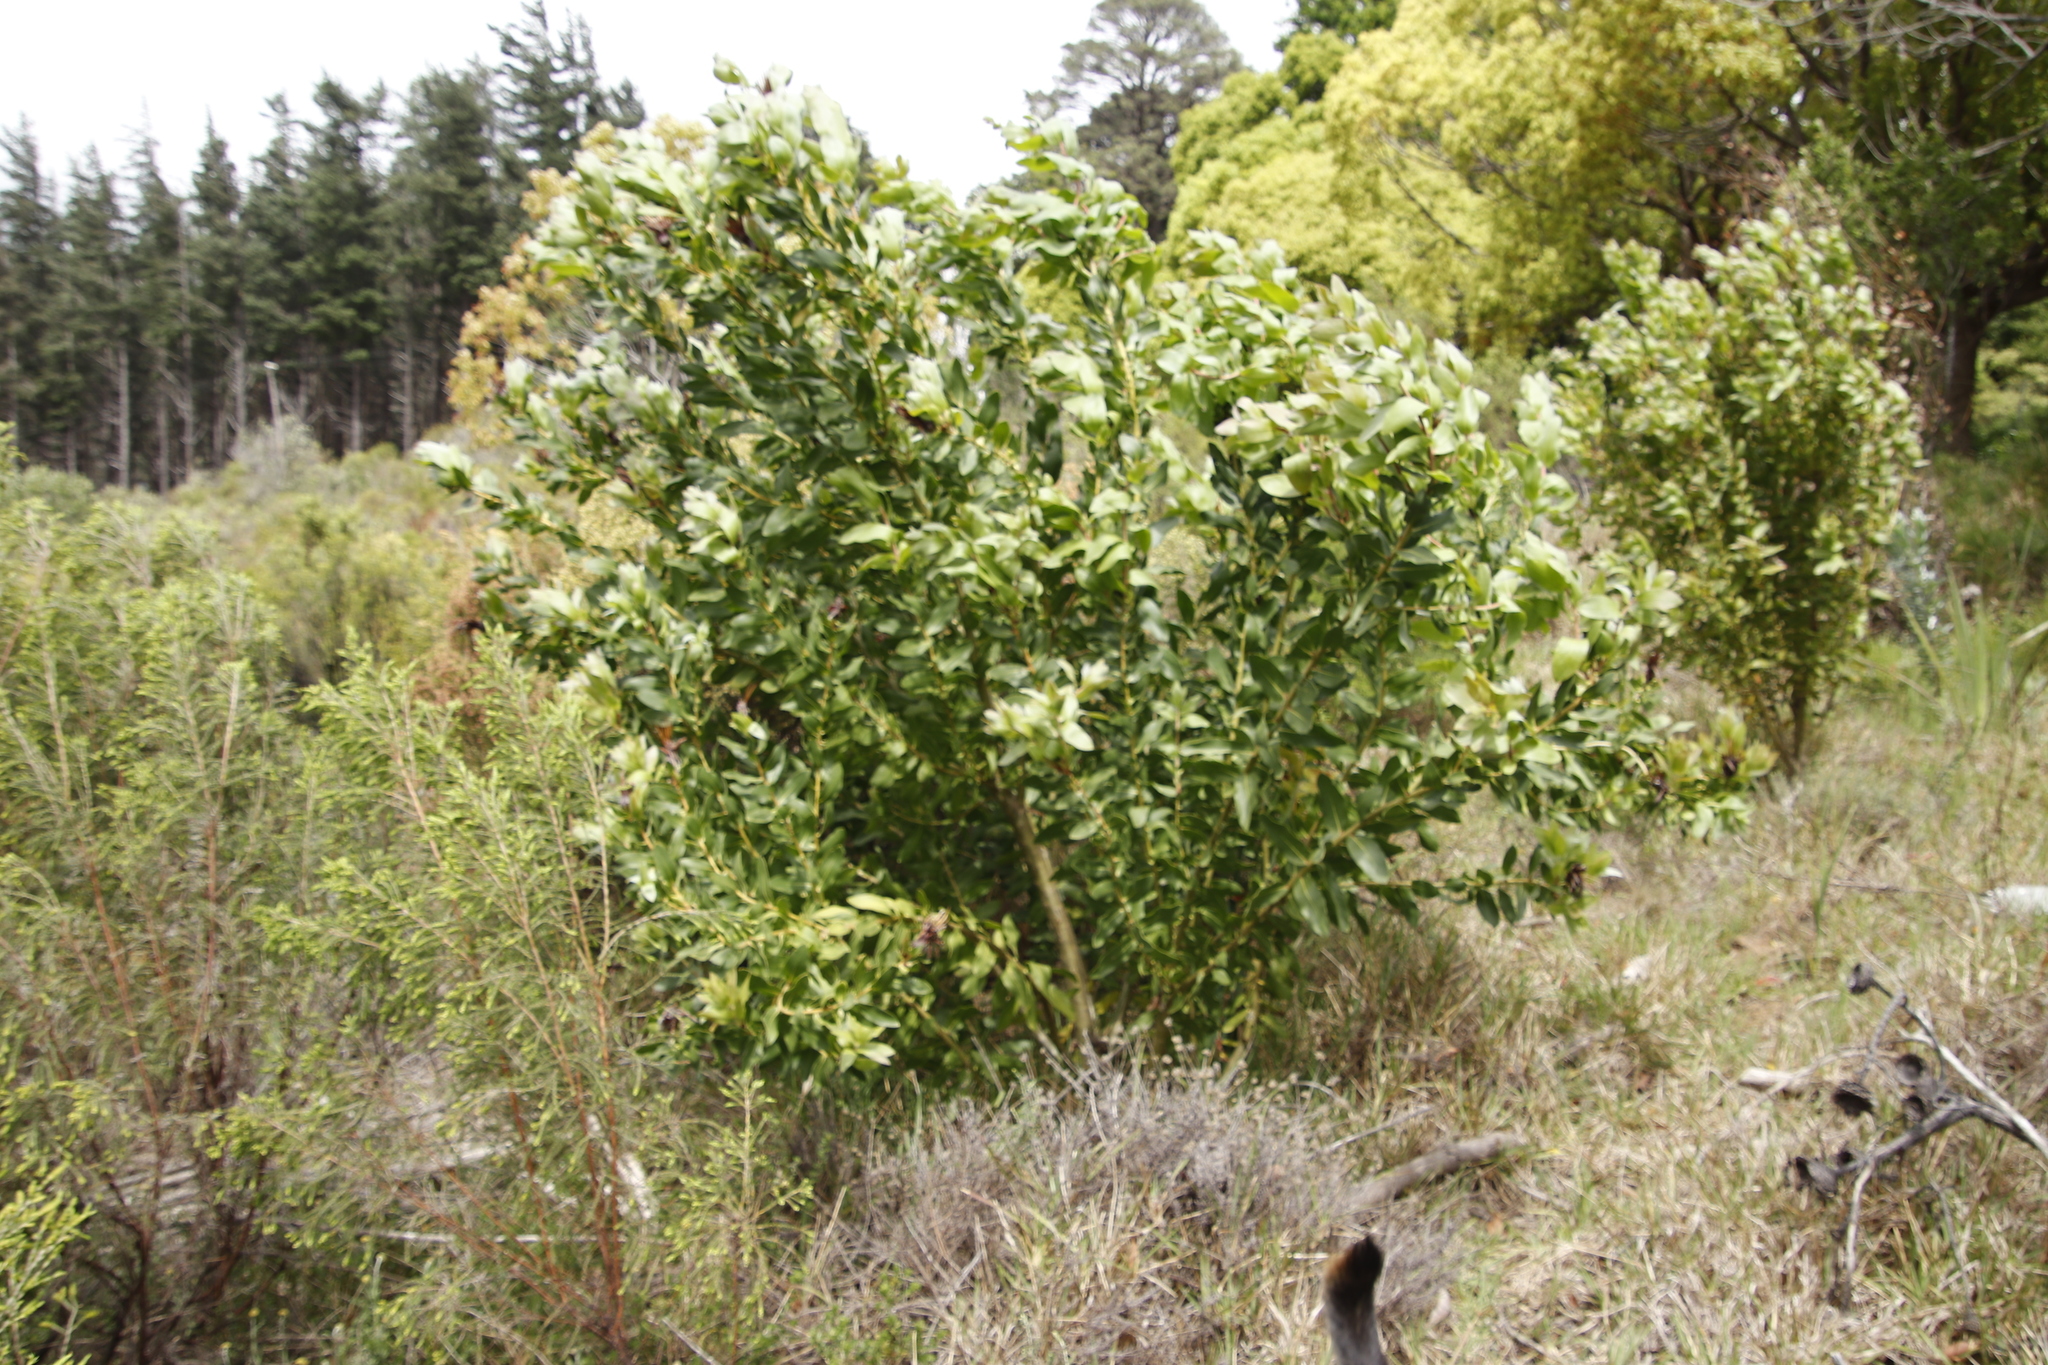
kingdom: Plantae
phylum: Tracheophyta
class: Magnoliopsida
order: Proteales
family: Proteaceae
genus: Protea
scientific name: Protea aurea
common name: Shuttlecock sugarbush
